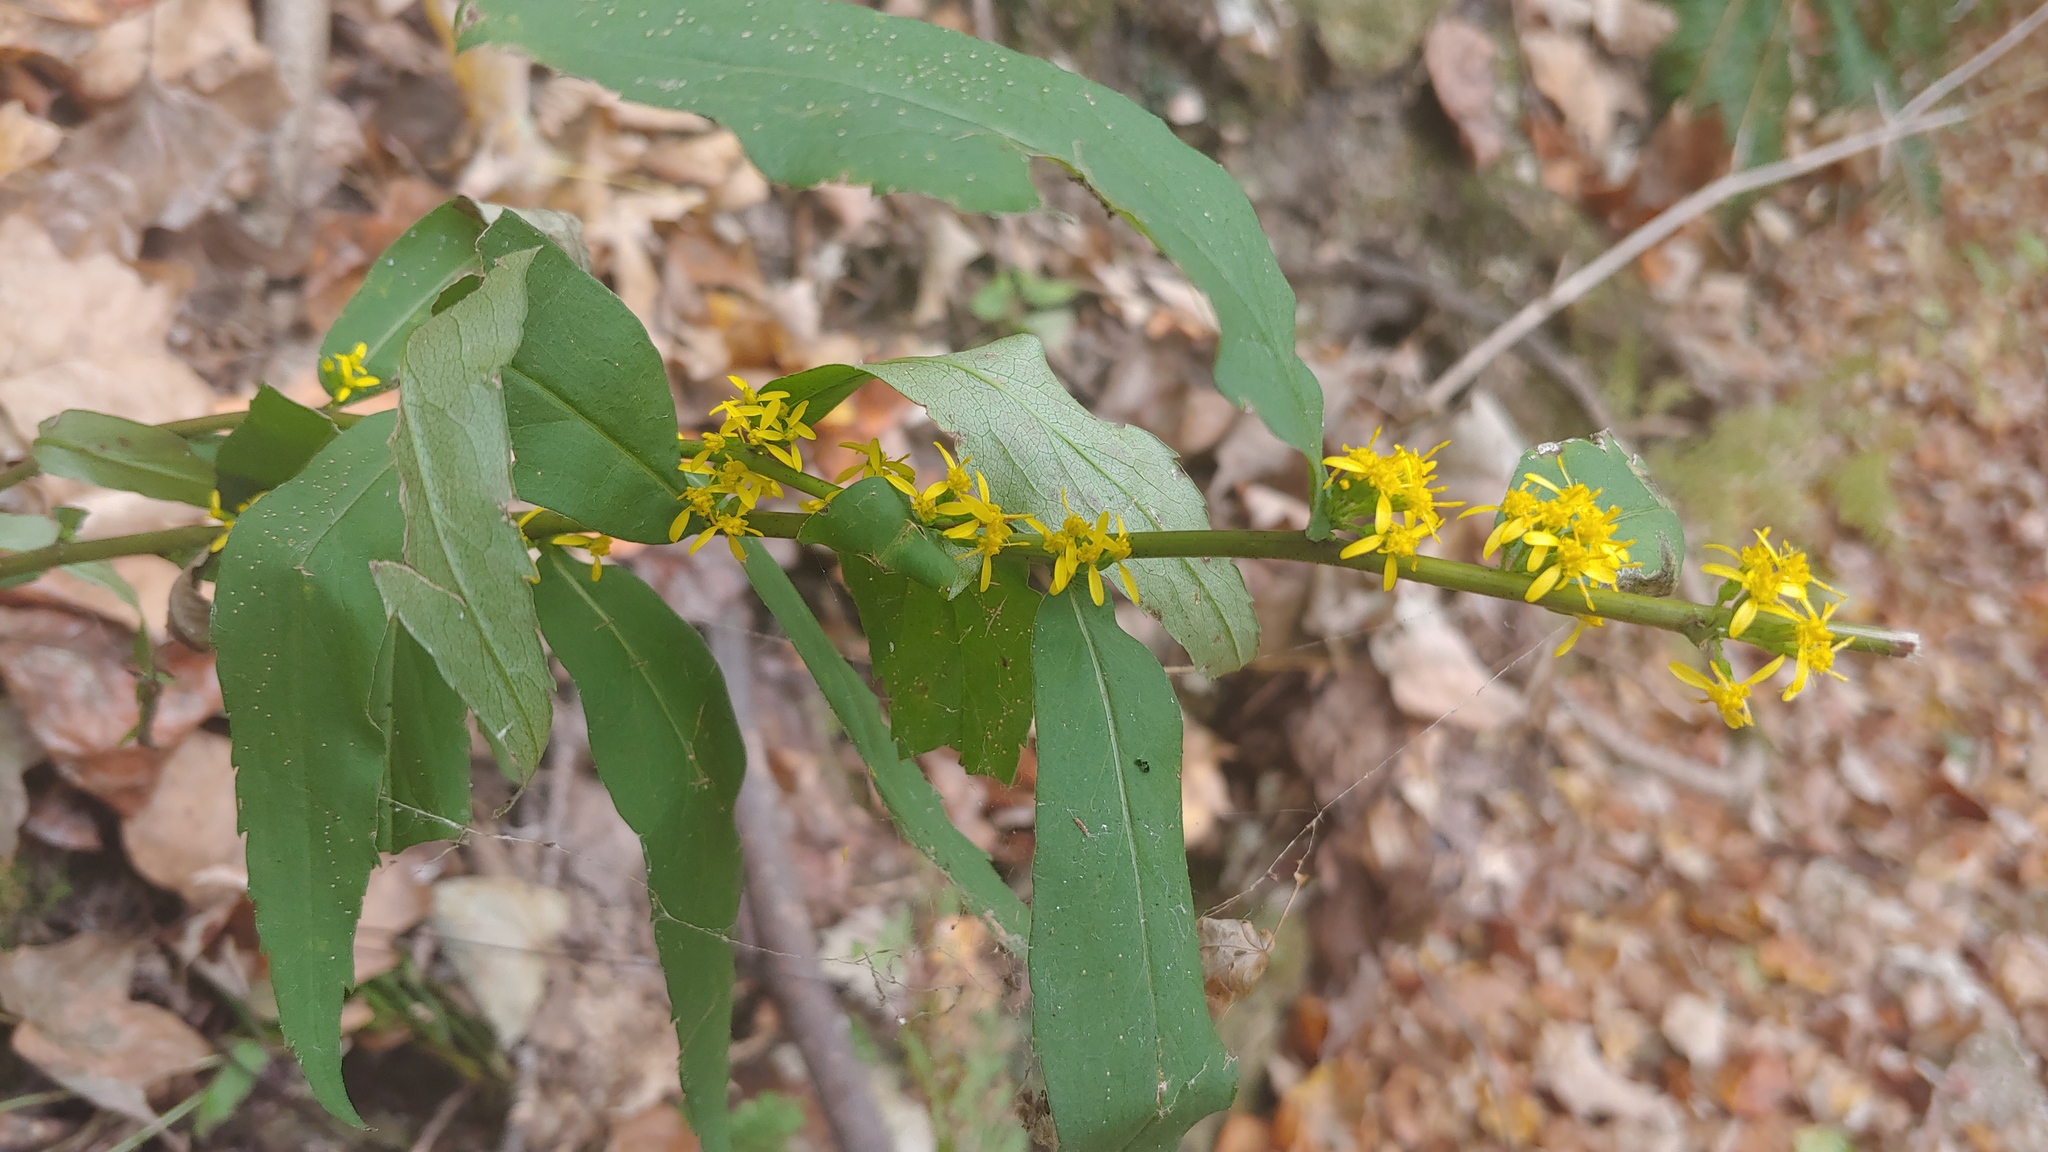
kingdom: Plantae
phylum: Tracheophyta
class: Magnoliopsida
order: Asterales
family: Asteraceae
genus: Solidago
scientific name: Solidago caesia
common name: Woodland goldenrod
